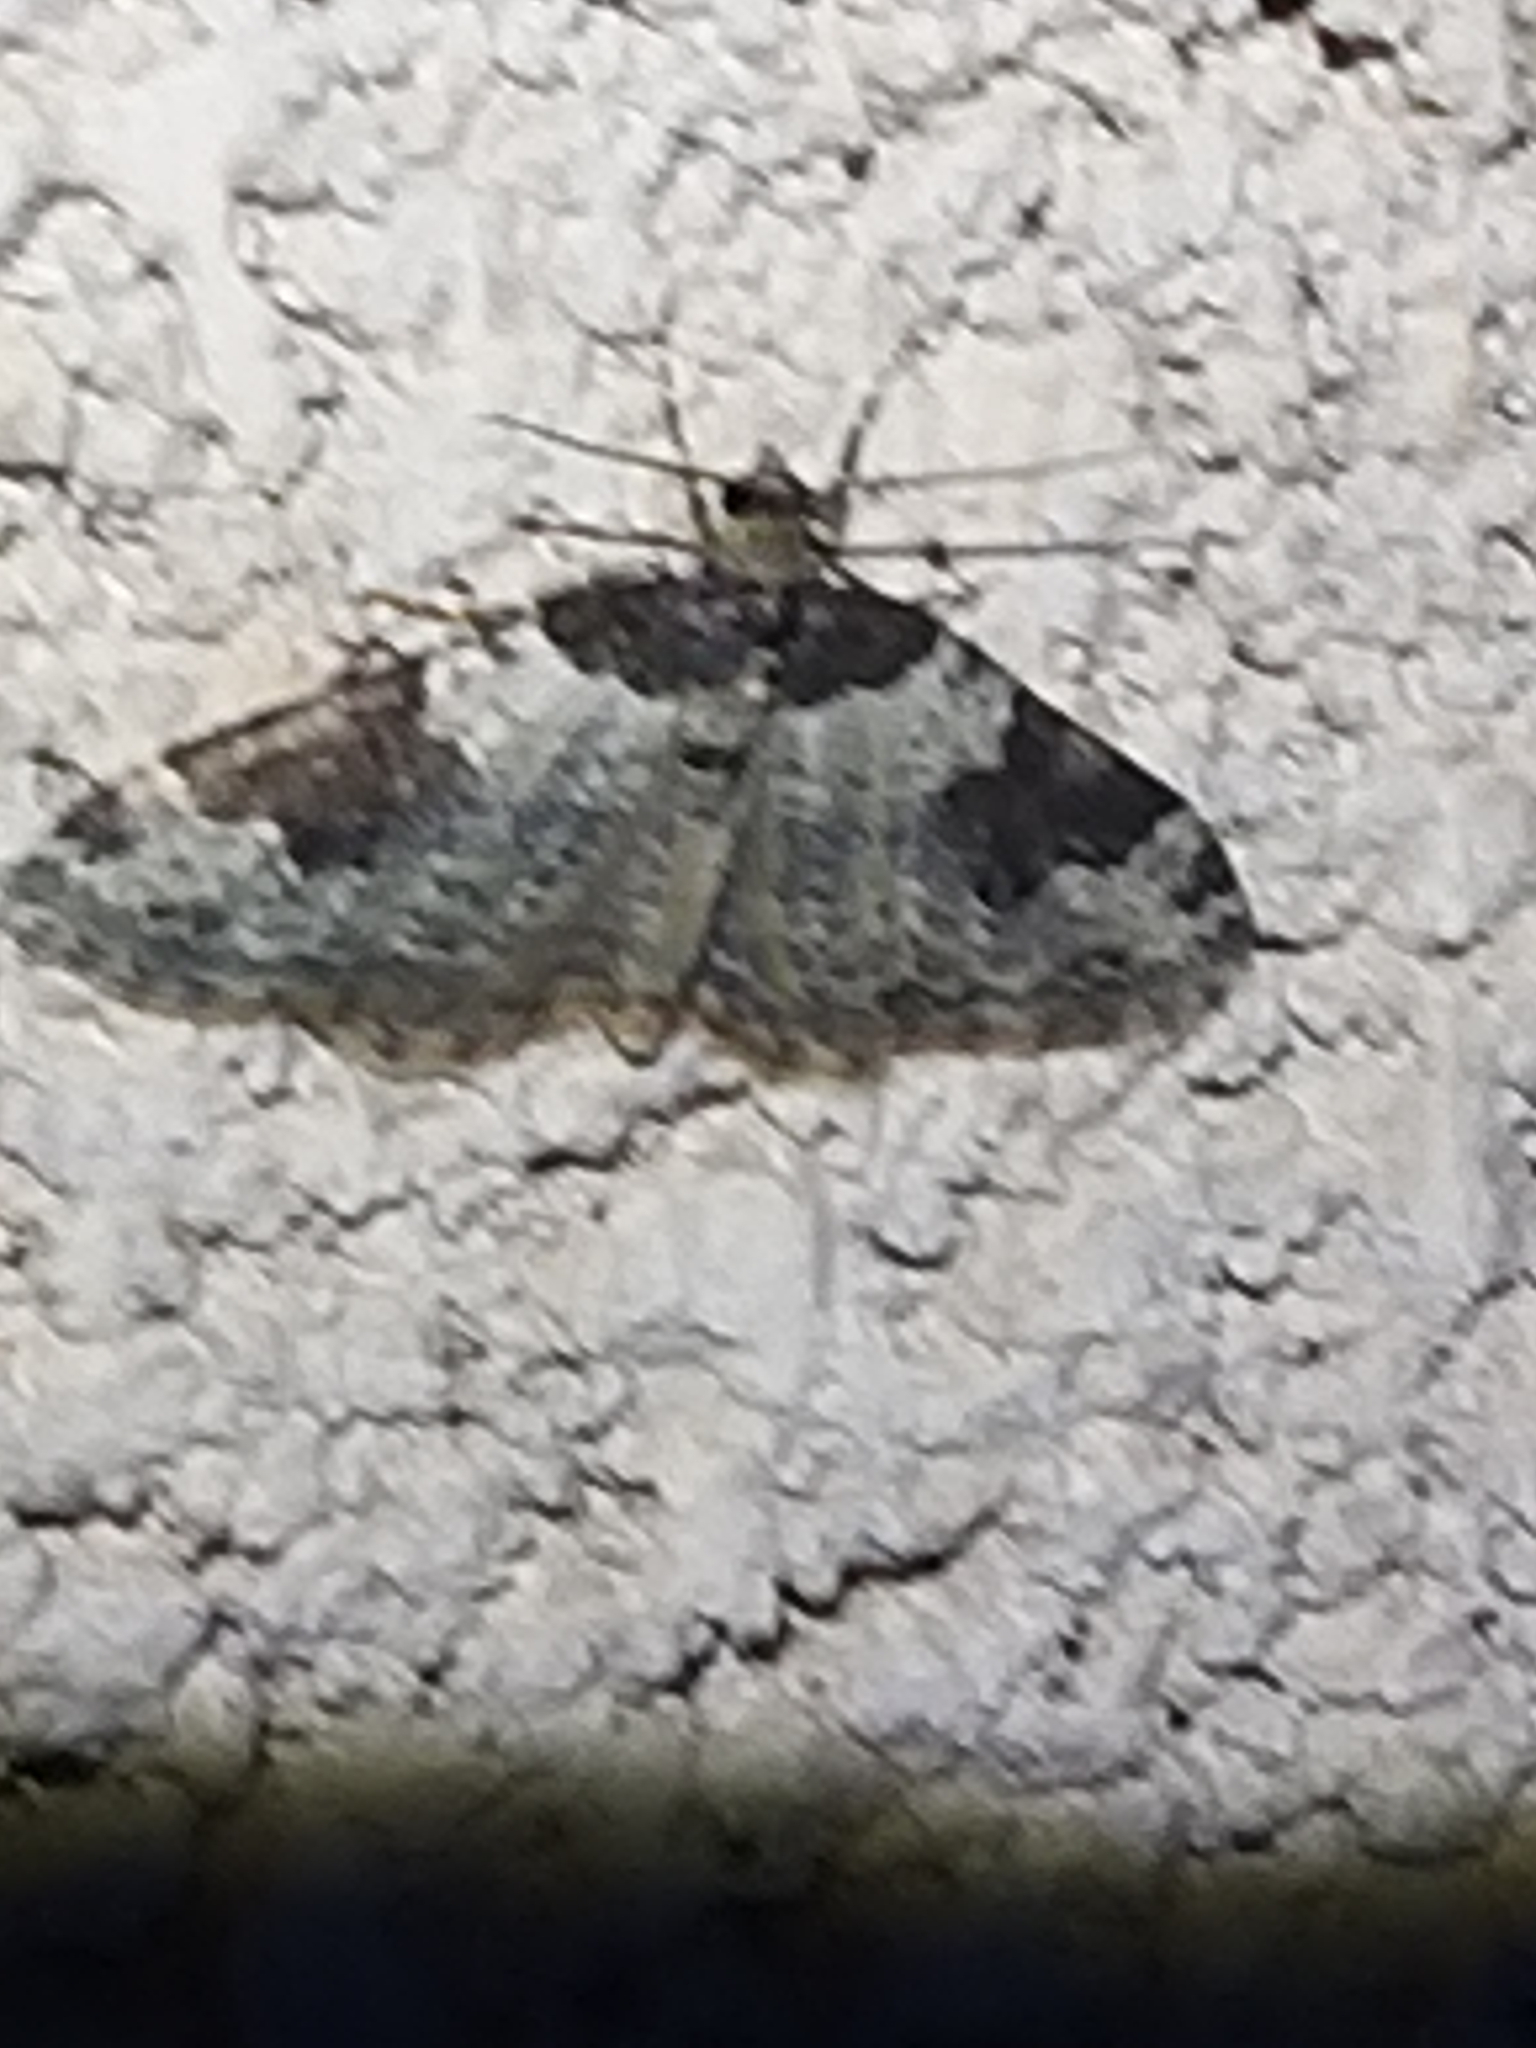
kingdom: Animalia
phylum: Arthropoda
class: Insecta
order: Lepidoptera
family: Geometridae
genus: Xanthorhoe
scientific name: Xanthorhoe fluctuata
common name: Garden carpet
